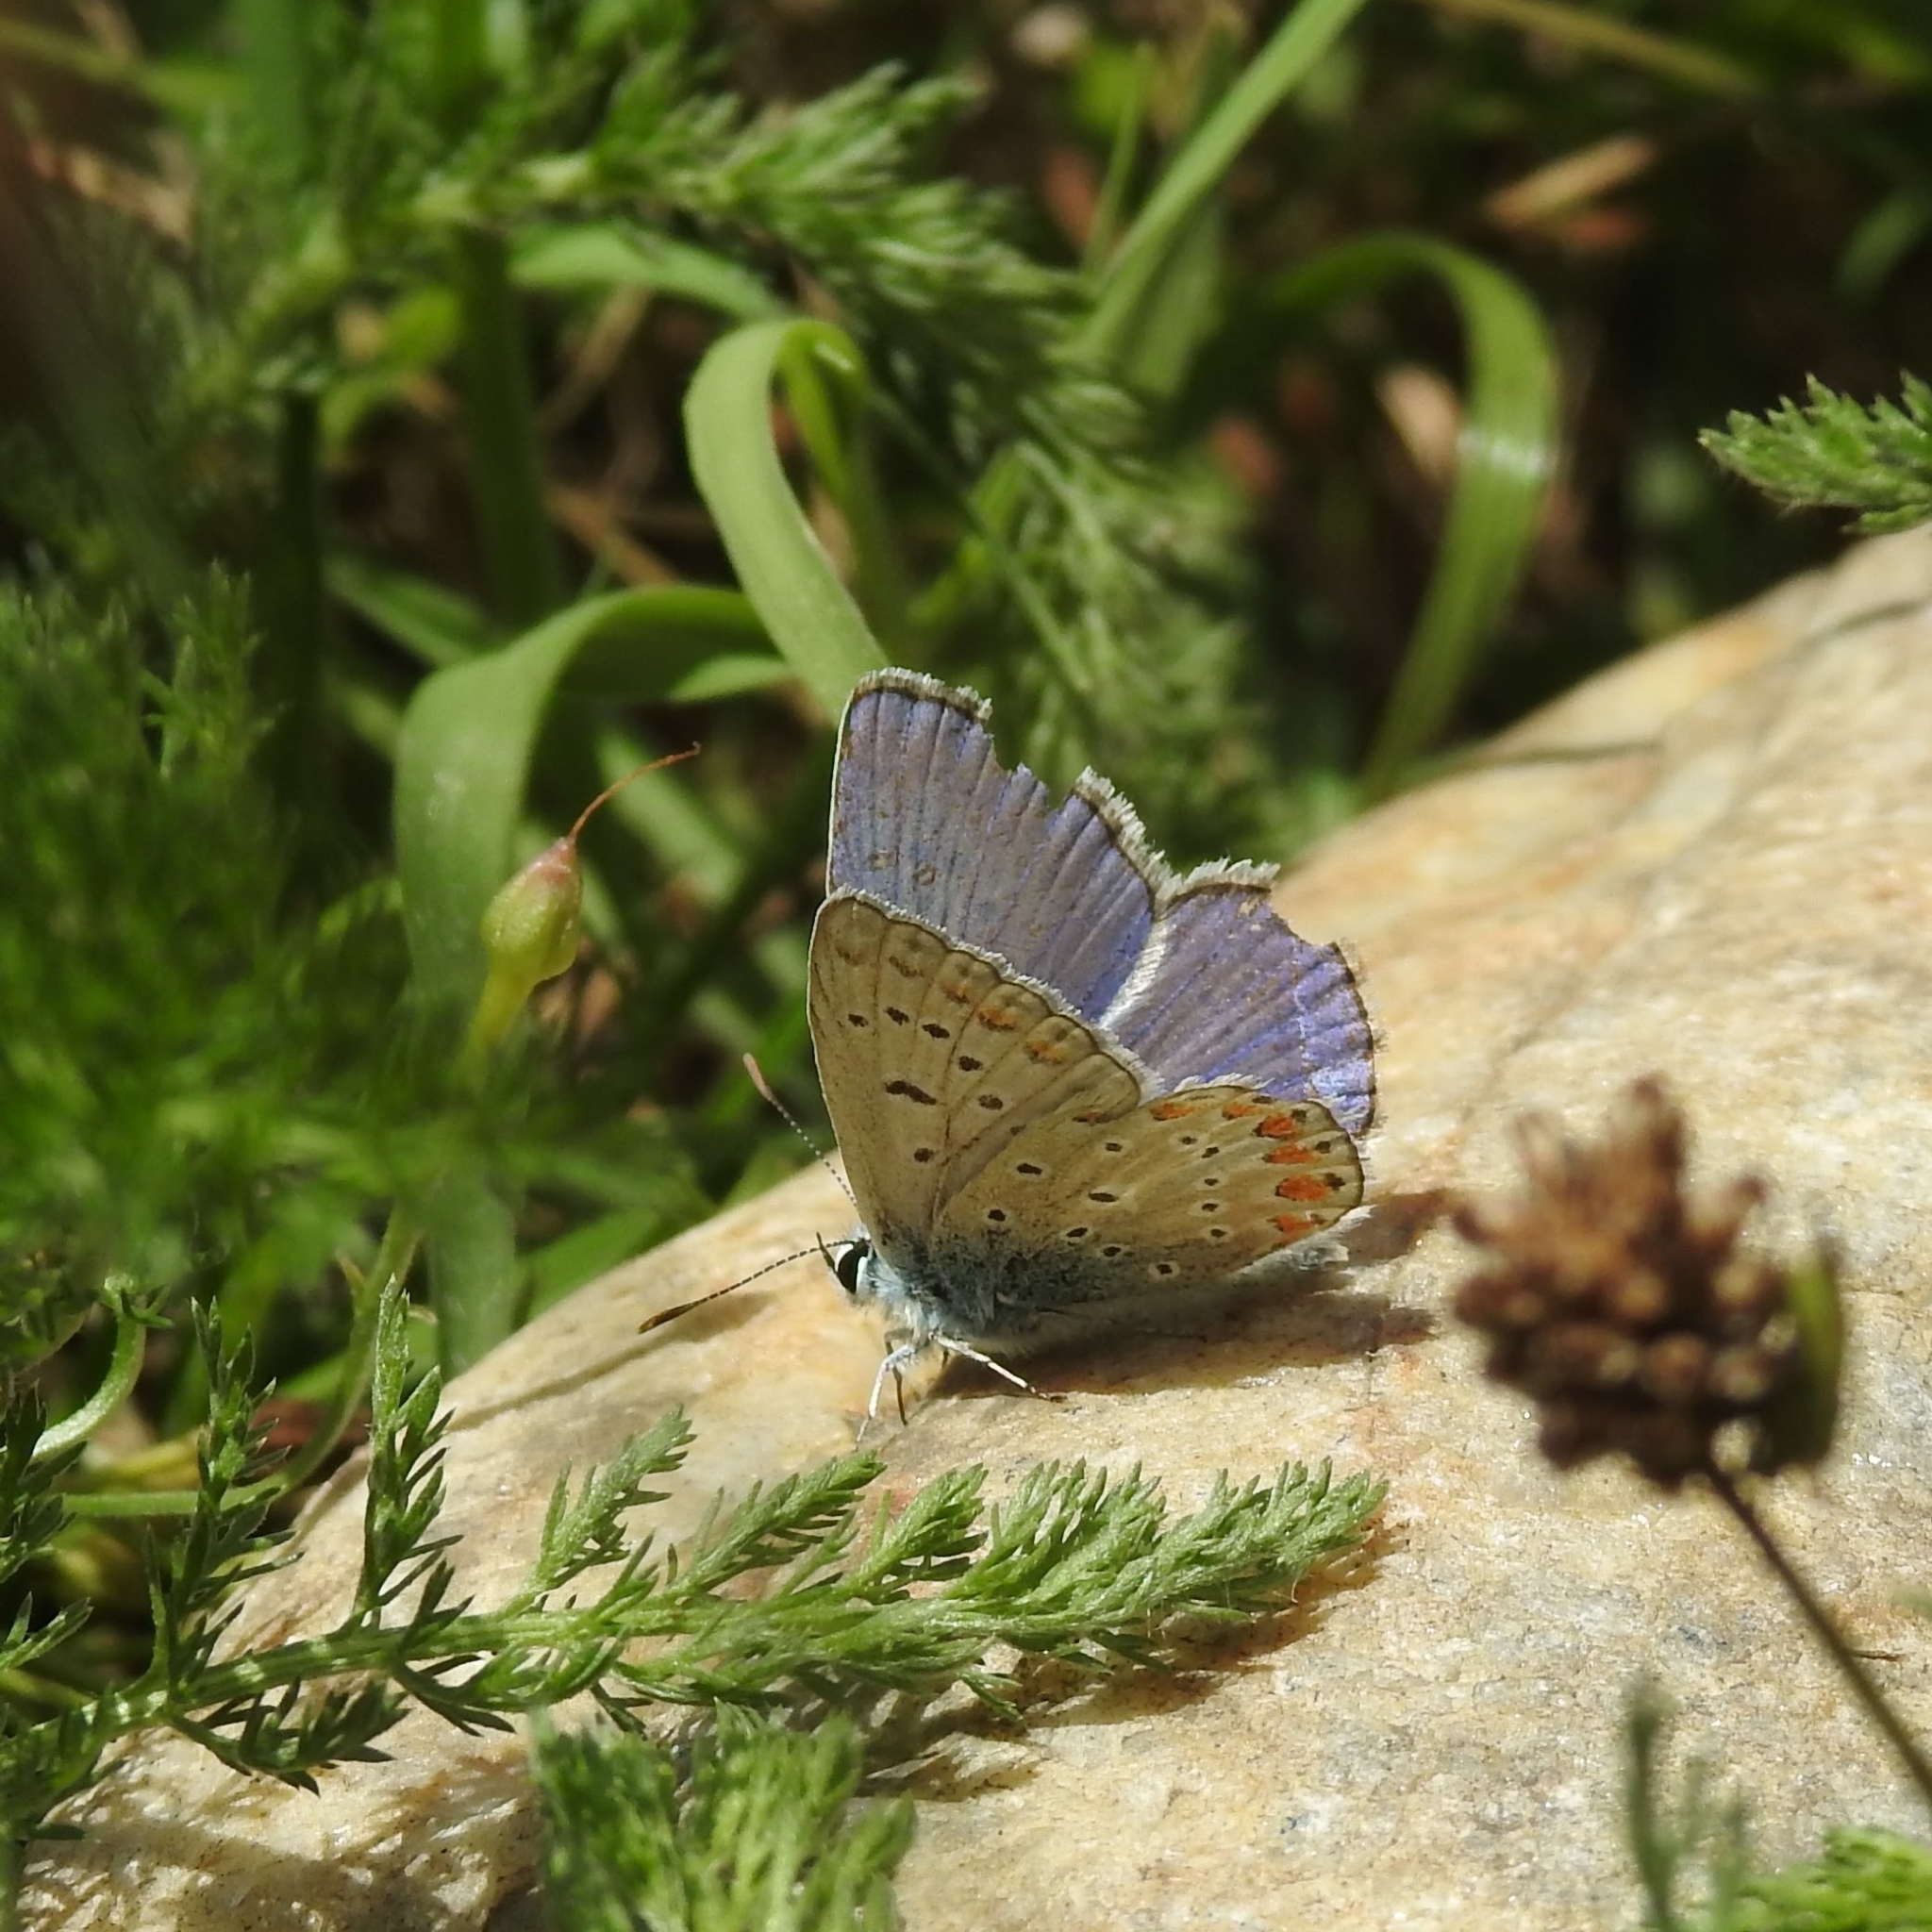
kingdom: Animalia
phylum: Arthropoda
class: Insecta
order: Lepidoptera
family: Lycaenidae
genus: Polyommatus
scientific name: Polyommatus icarus
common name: Common blue
